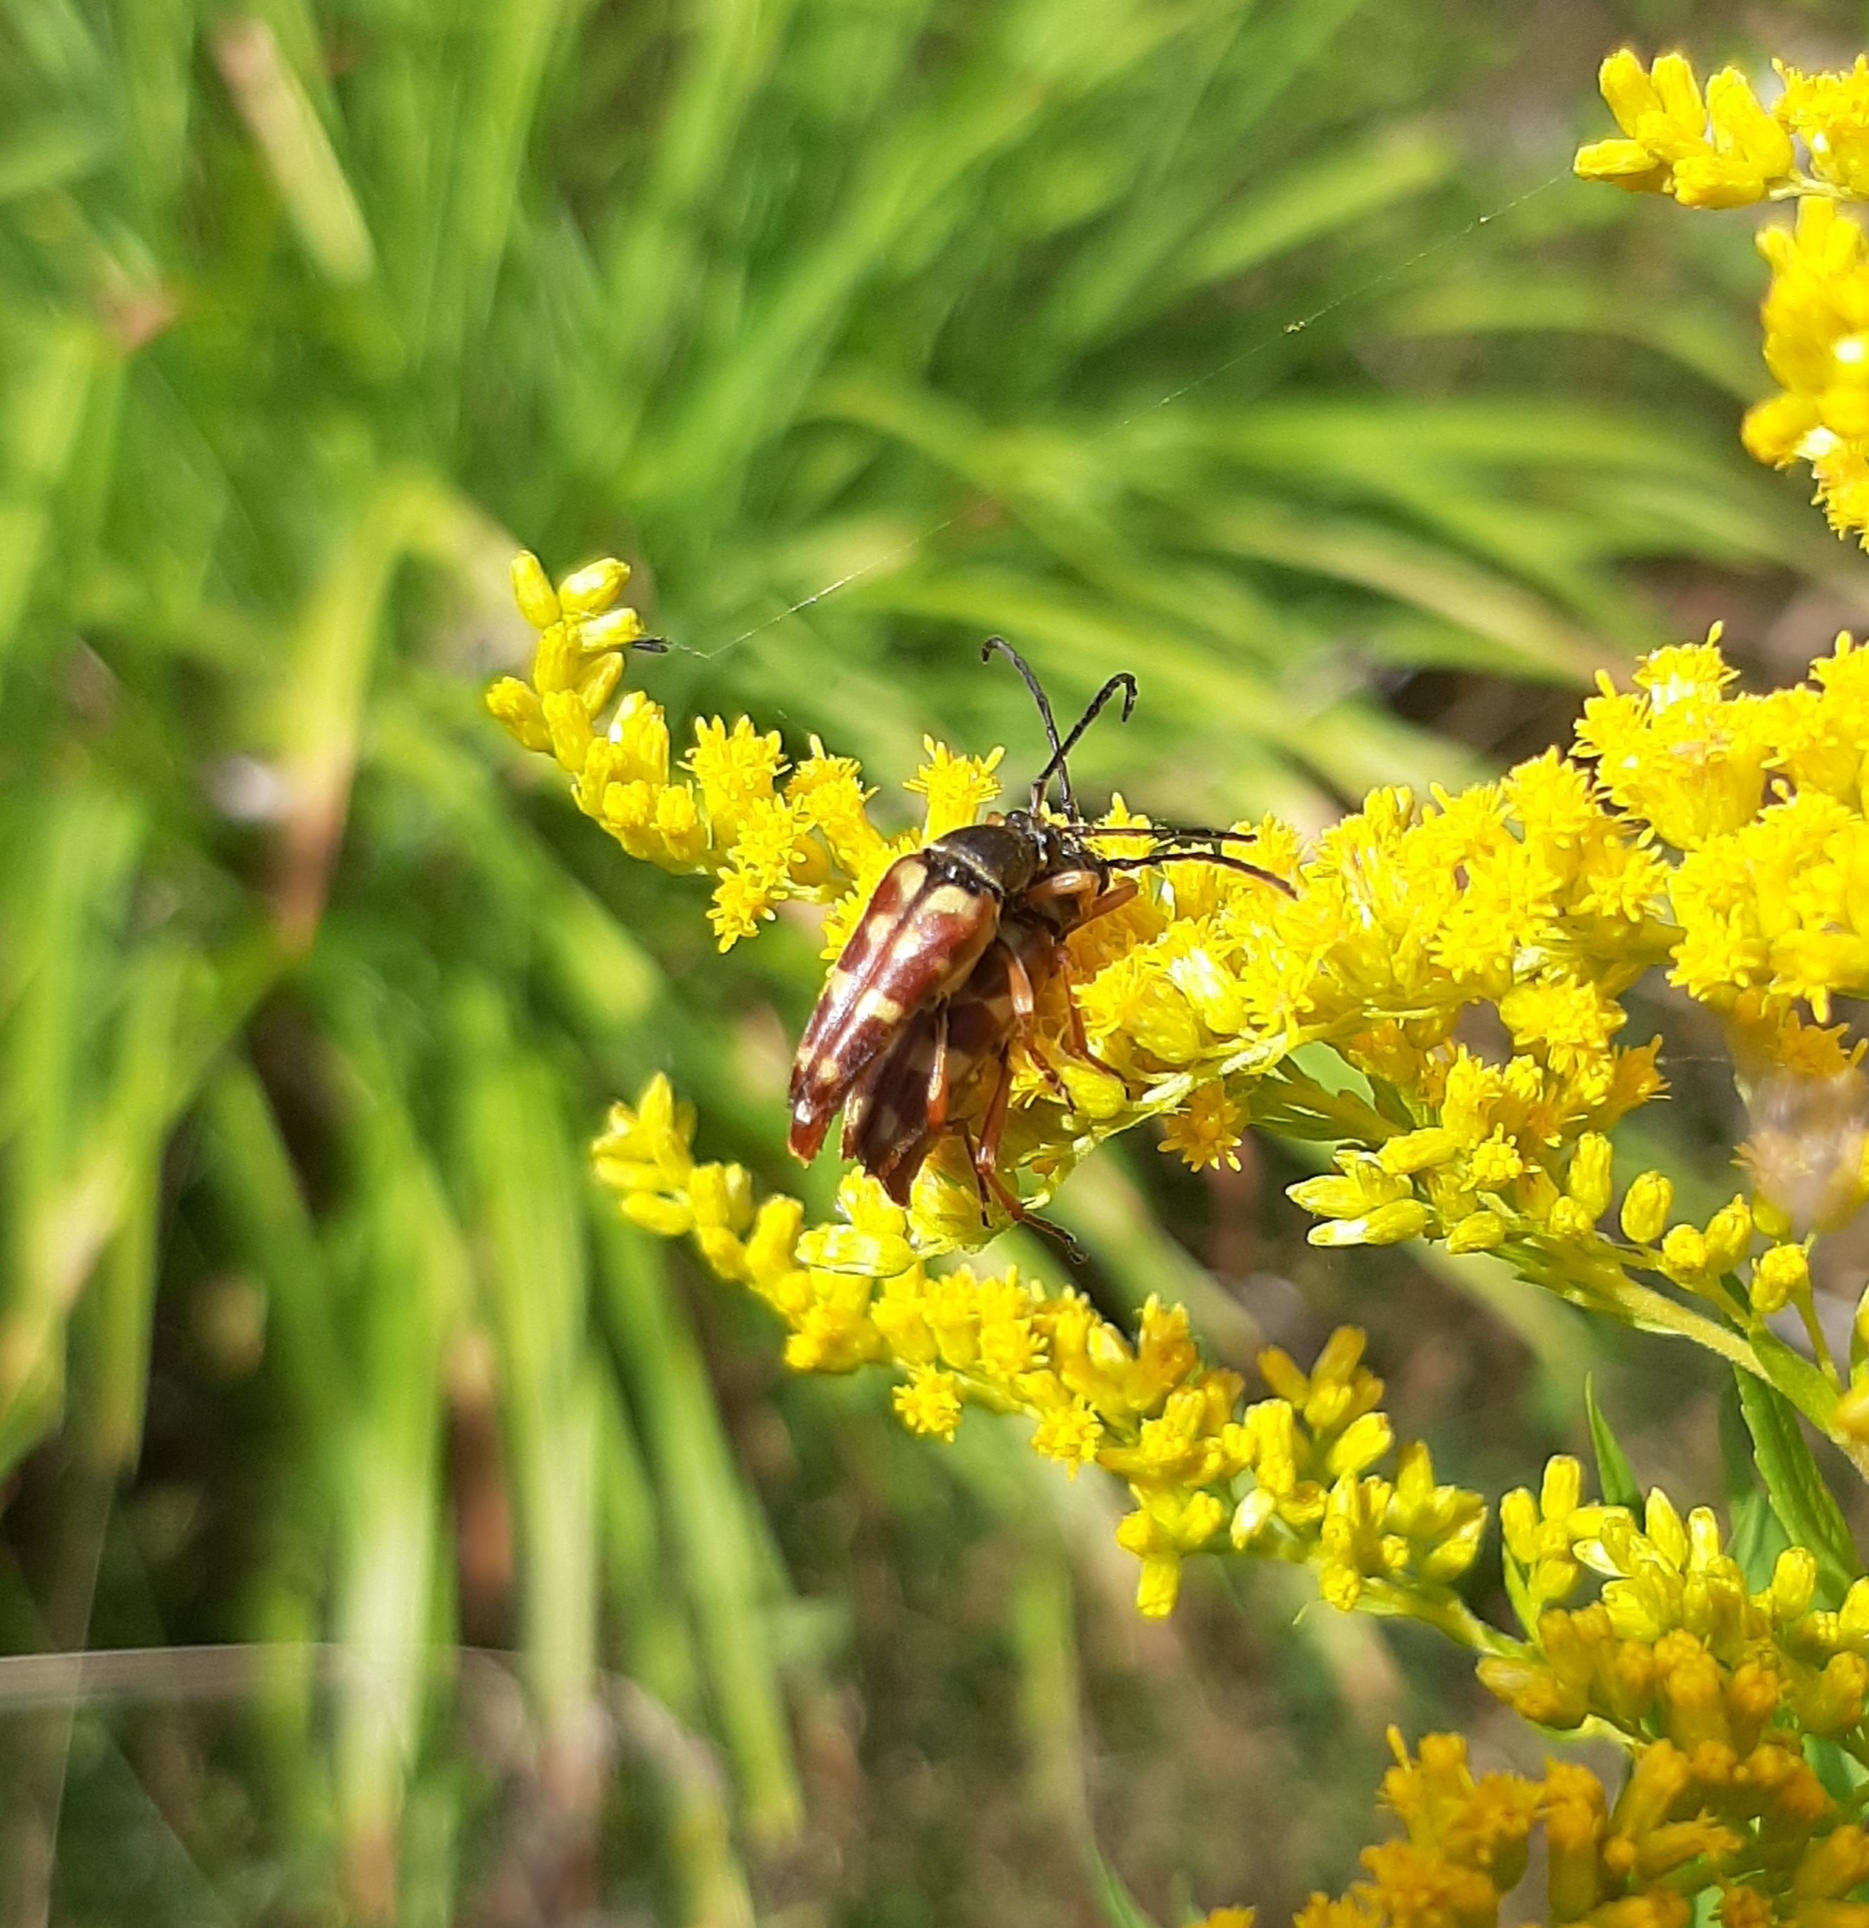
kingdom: Animalia
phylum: Arthropoda
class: Insecta
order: Coleoptera
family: Cerambycidae
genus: Typocerus
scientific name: Typocerus velutinus
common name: Banded longhorn beetle
